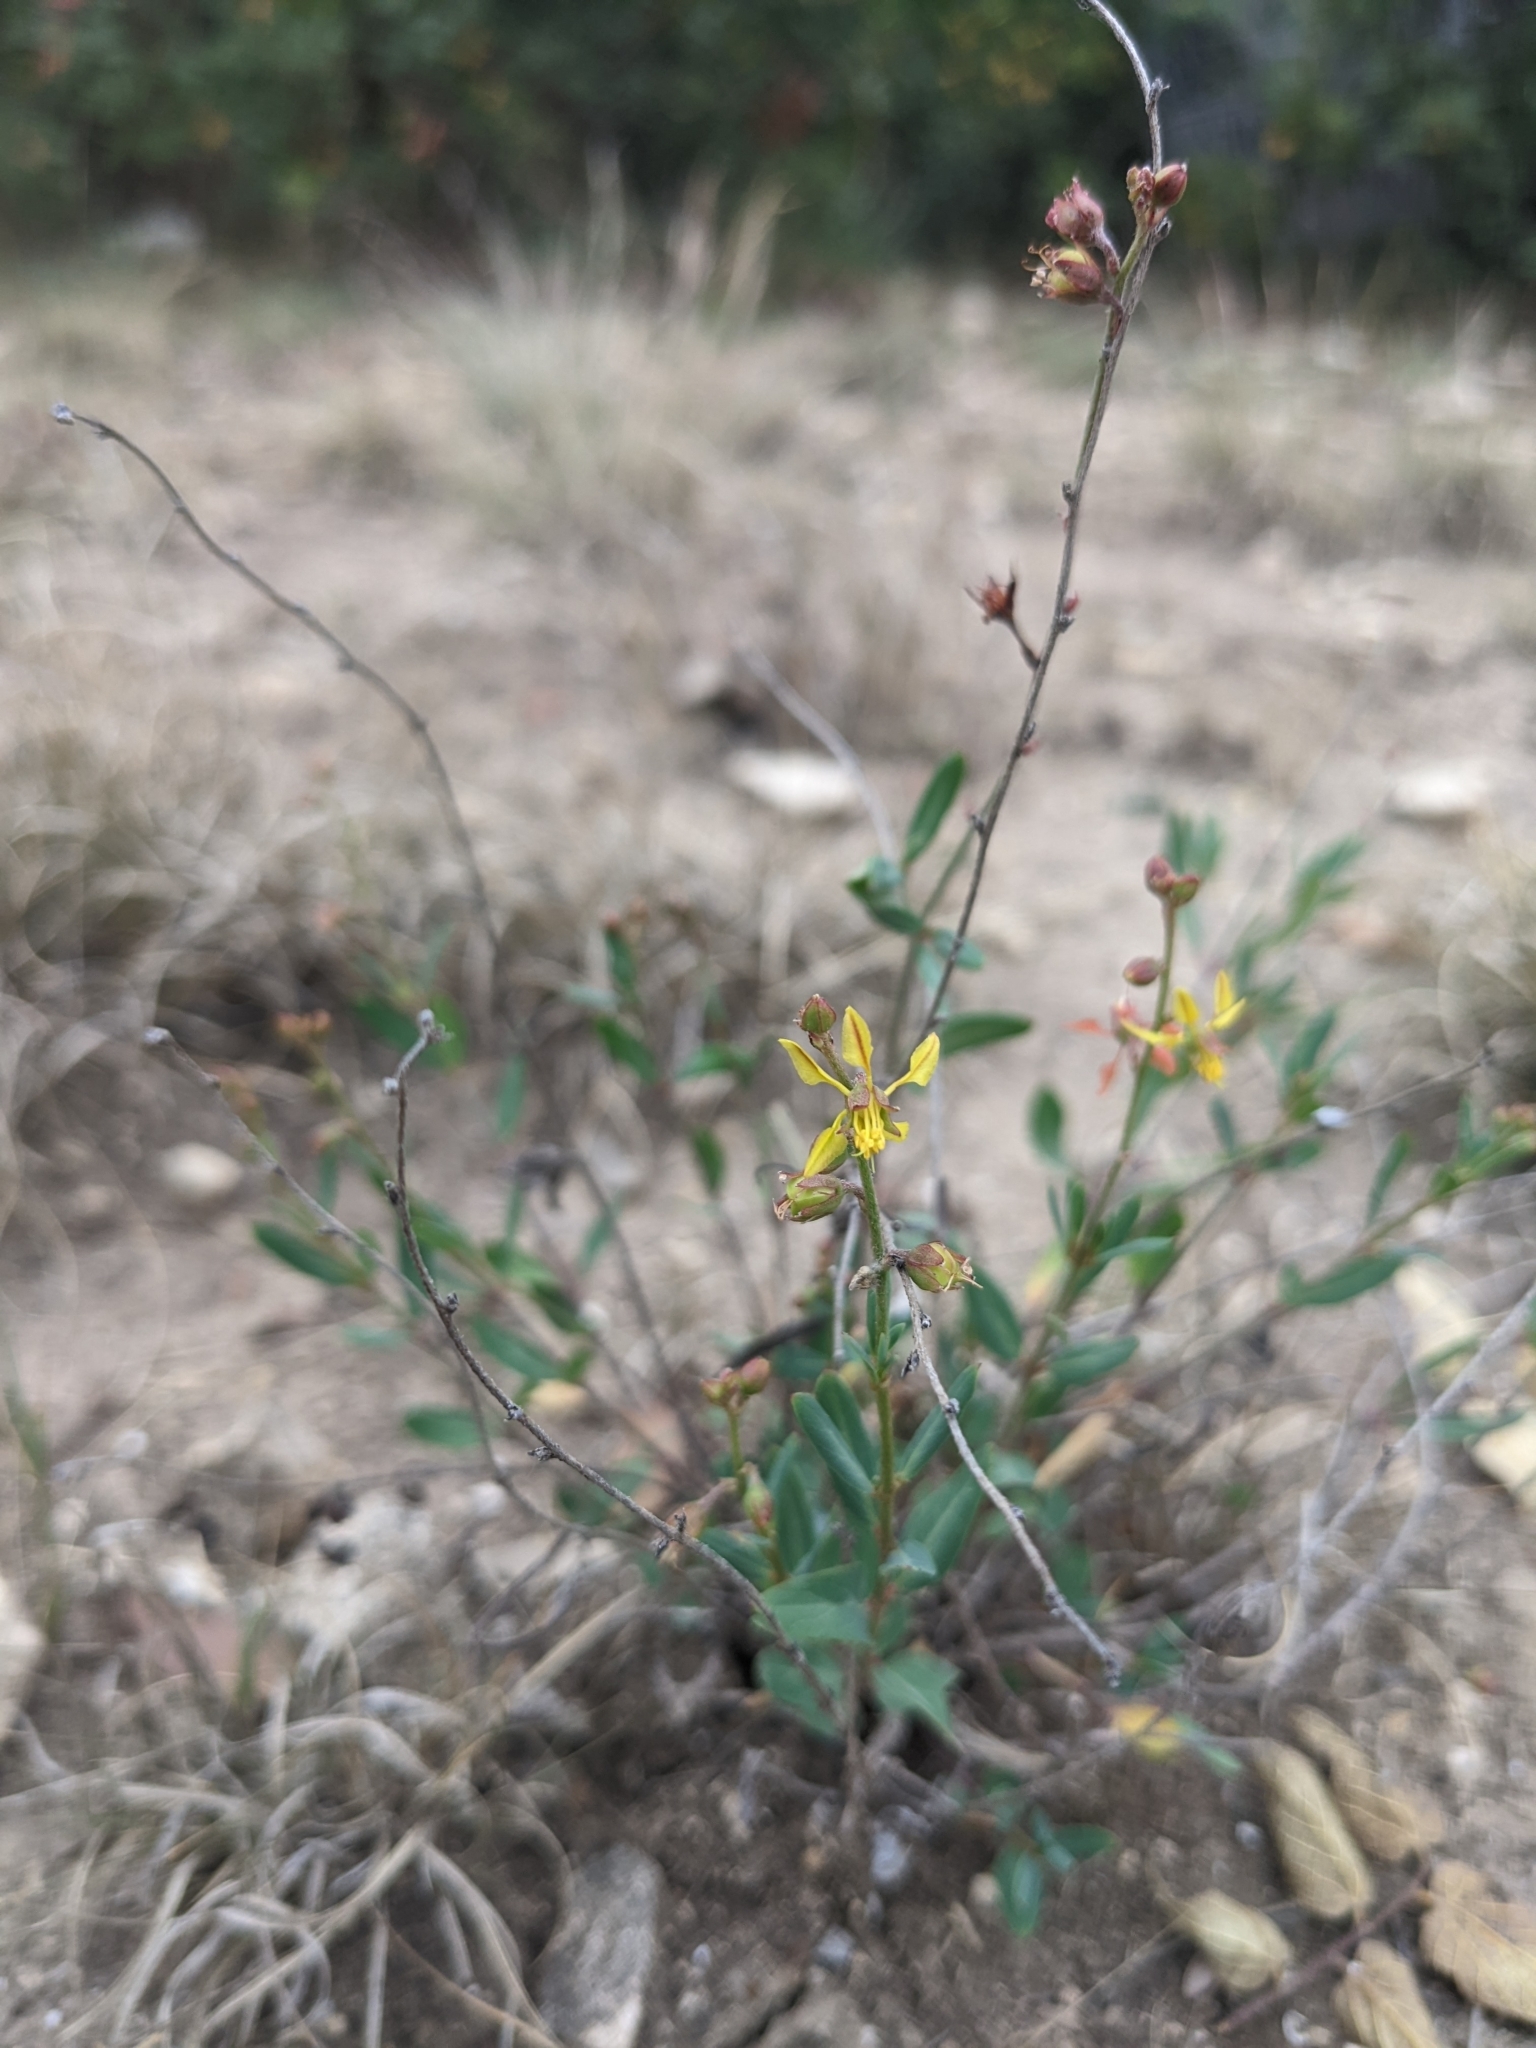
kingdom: Plantae
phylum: Tracheophyta
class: Magnoliopsida
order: Malpighiales
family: Malpighiaceae
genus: Galphimia
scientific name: Galphimia angustifolia
